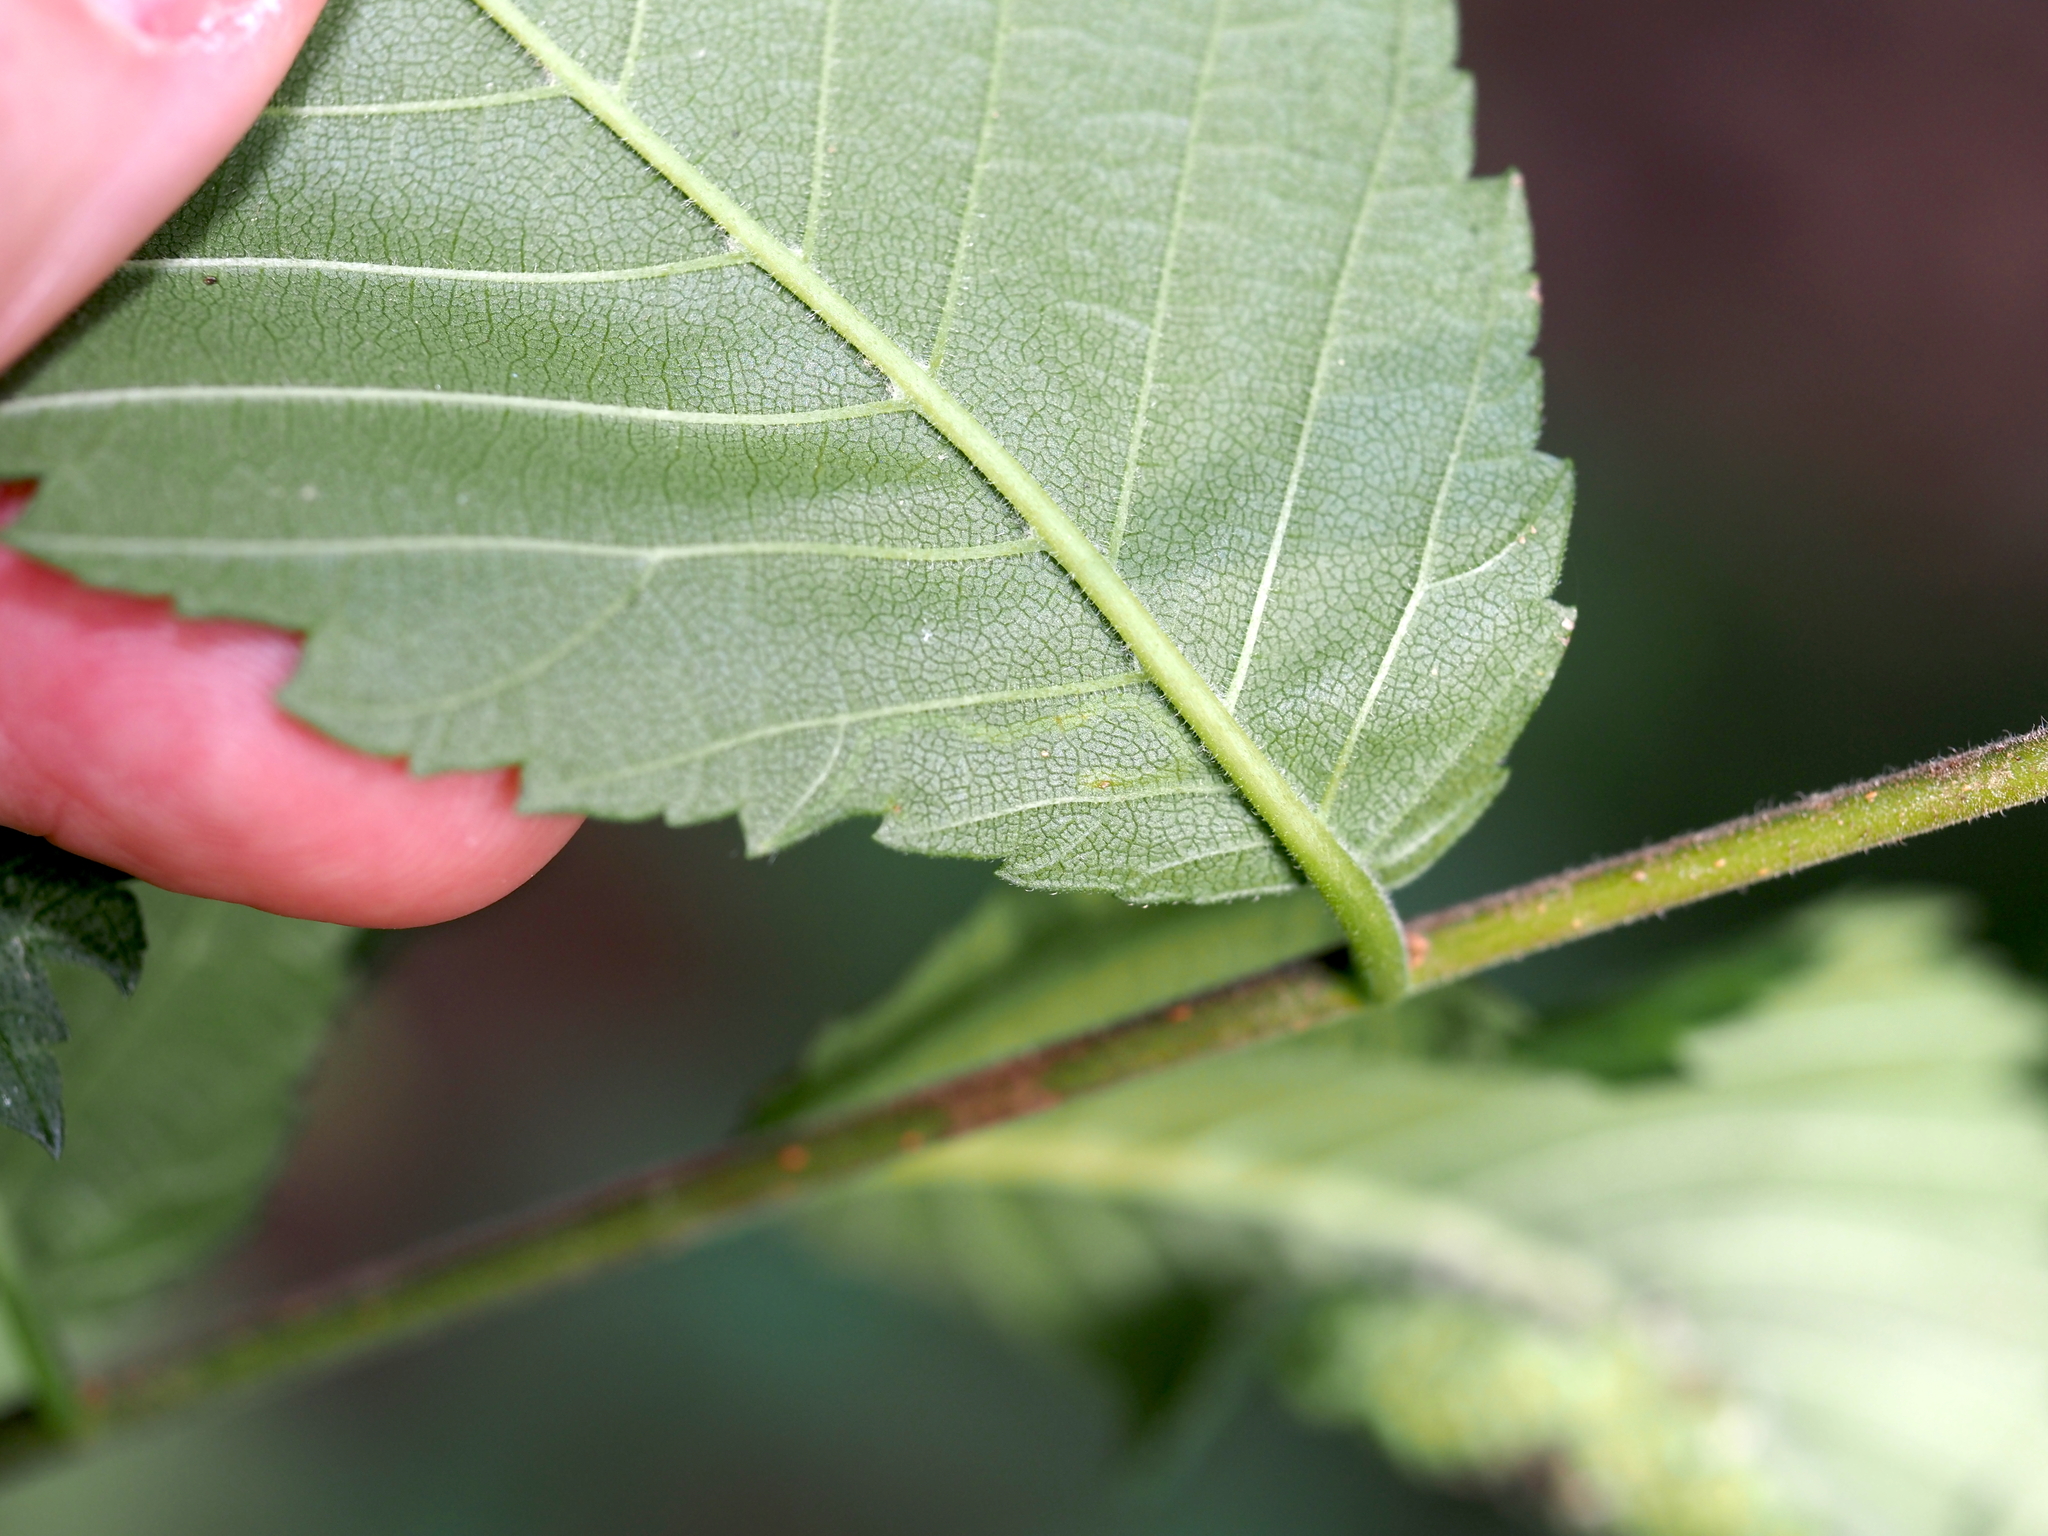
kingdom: Animalia
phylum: Arthropoda
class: Insecta
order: Diptera
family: Agromyzidae
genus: Agromyza
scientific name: Agromyza aristata
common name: Elm agromyzid leafminer
